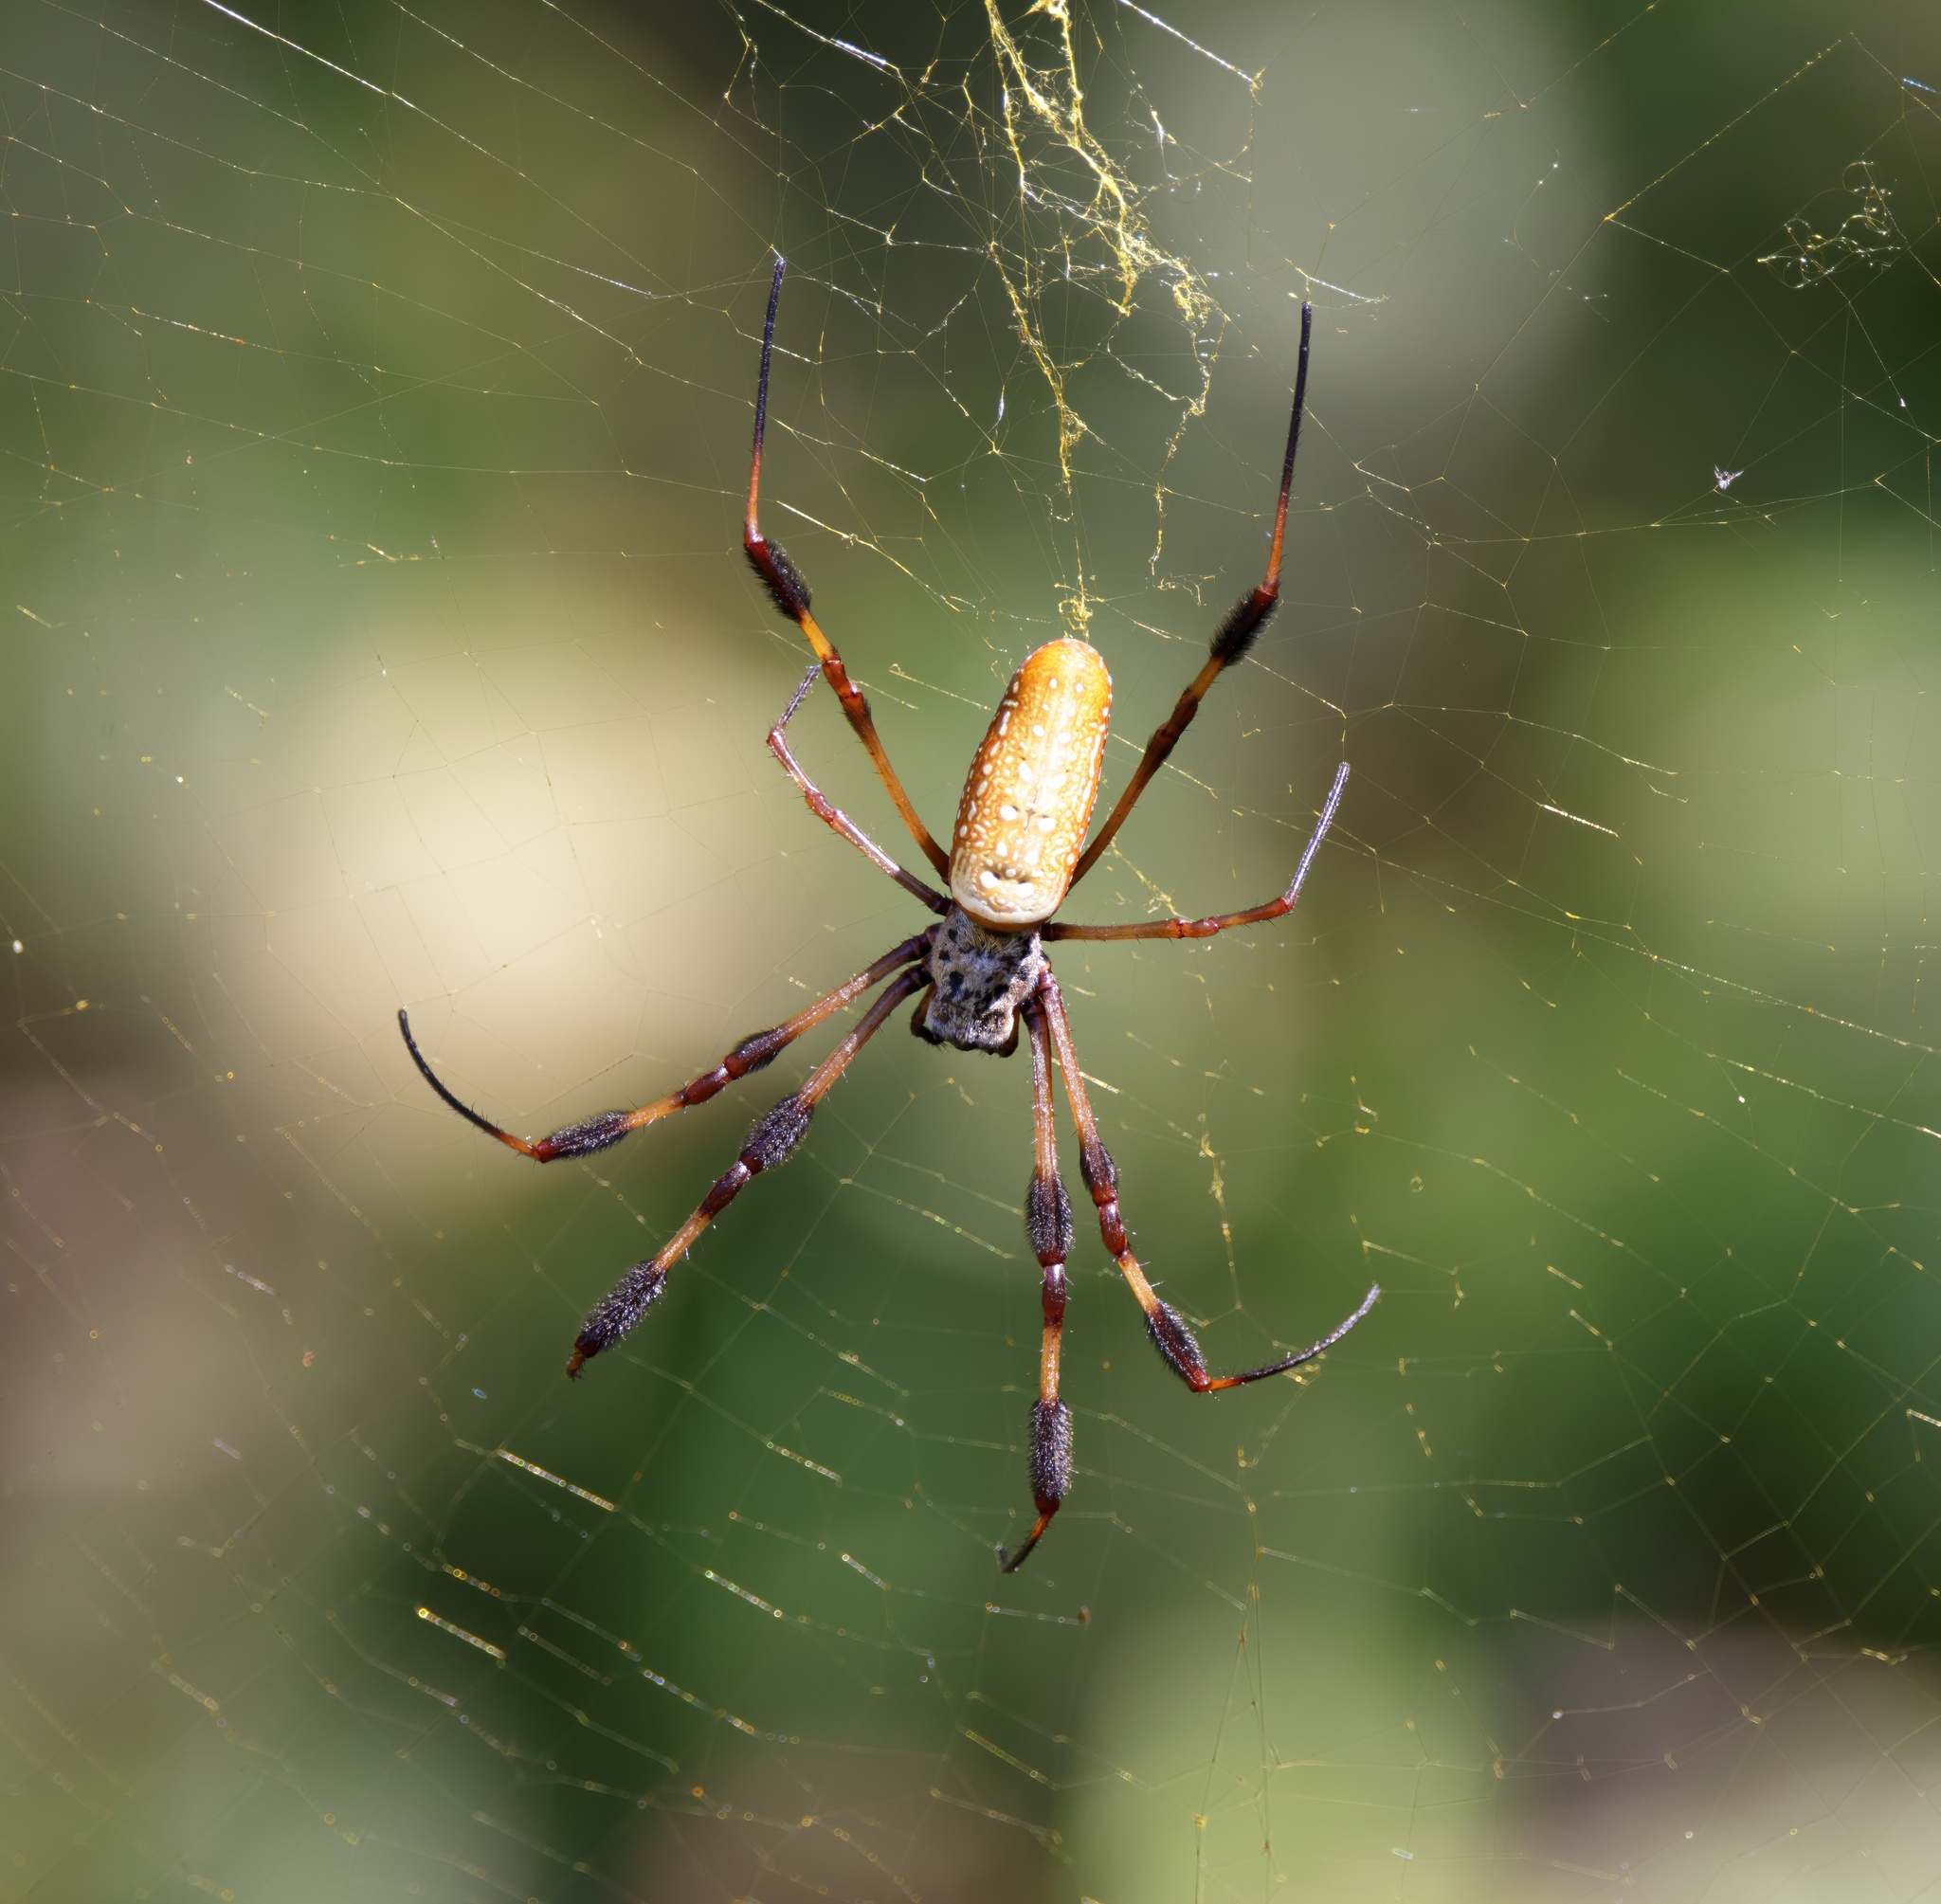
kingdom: Animalia
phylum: Arthropoda
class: Arachnida
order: Araneae
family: Araneidae
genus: Trichonephila
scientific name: Trichonephila clavipes
